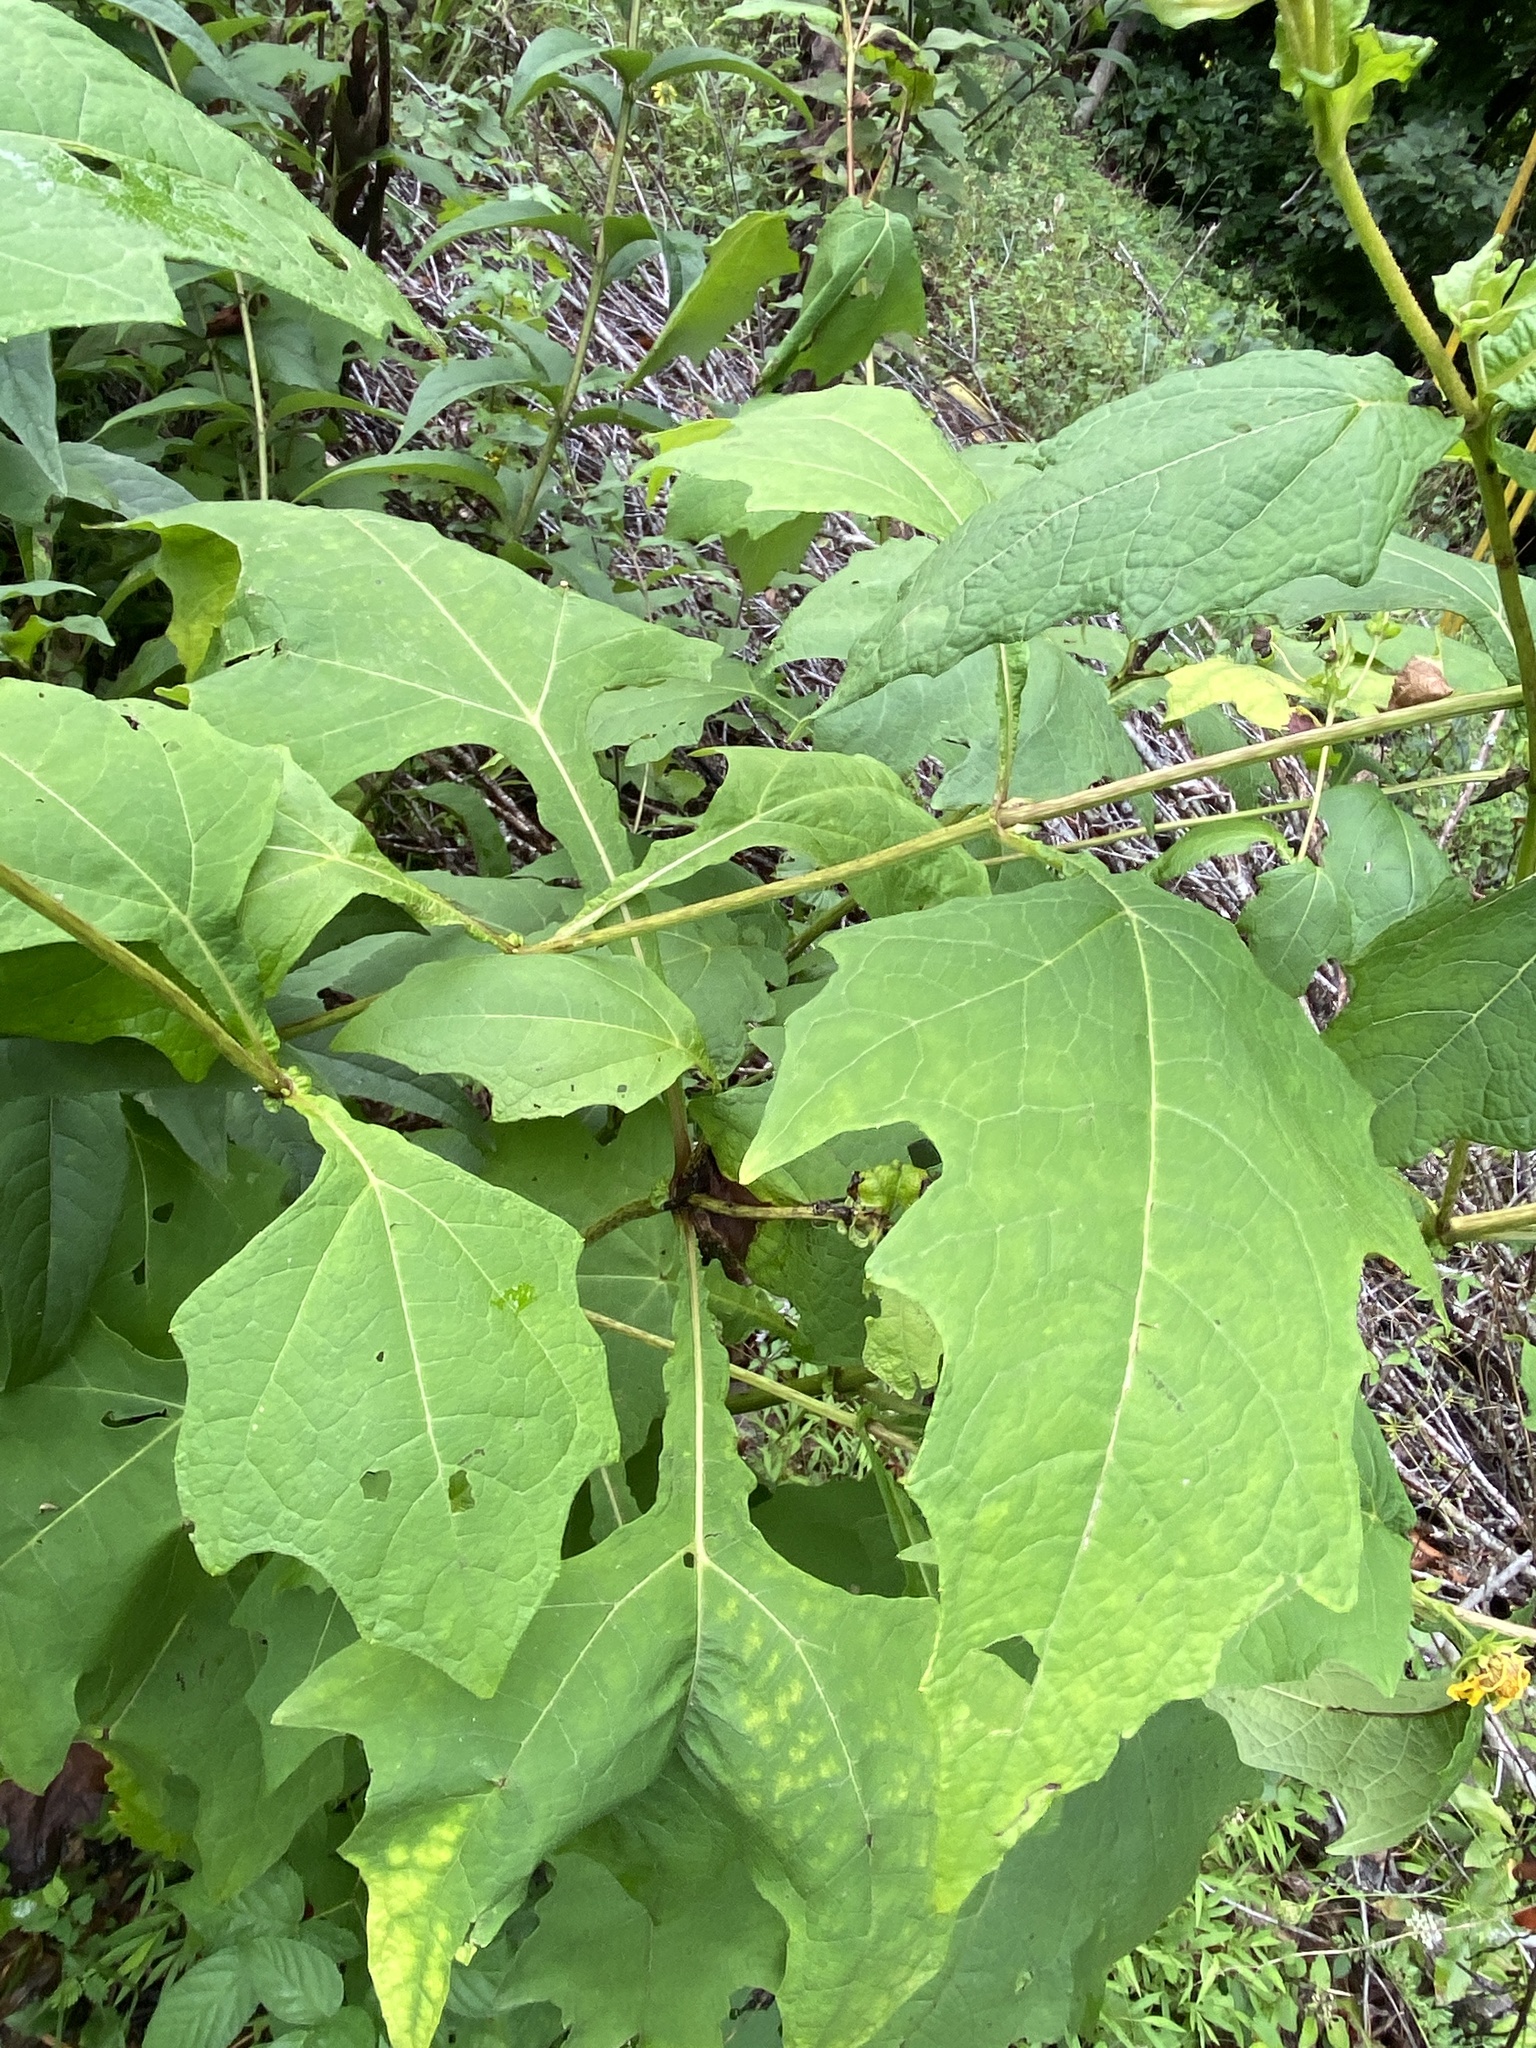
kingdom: Plantae
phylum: Tracheophyta
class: Magnoliopsida
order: Asterales
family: Asteraceae
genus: Smallanthus
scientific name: Smallanthus uvedalia
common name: Bear's-foot
